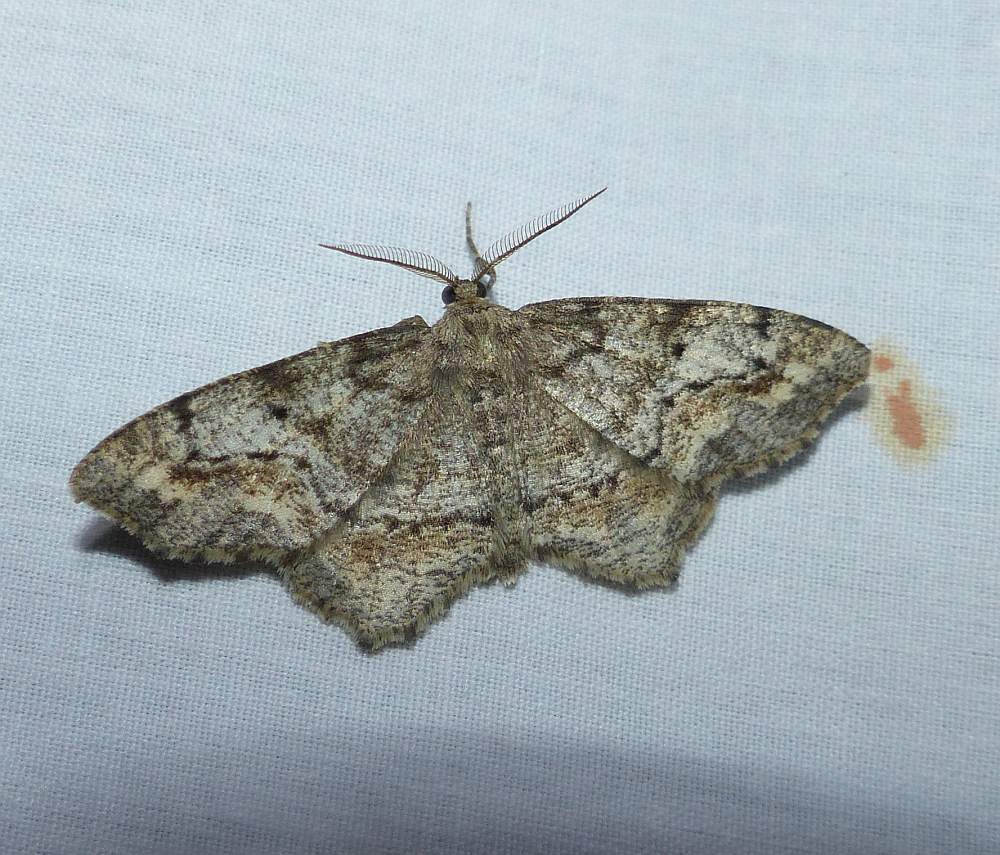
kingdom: Animalia
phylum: Arthropoda
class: Insecta
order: Lepidoptera
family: Geometridae
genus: Hypagyrtis
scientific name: Hypagyrtis unipunctata
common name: One-spotted variant
